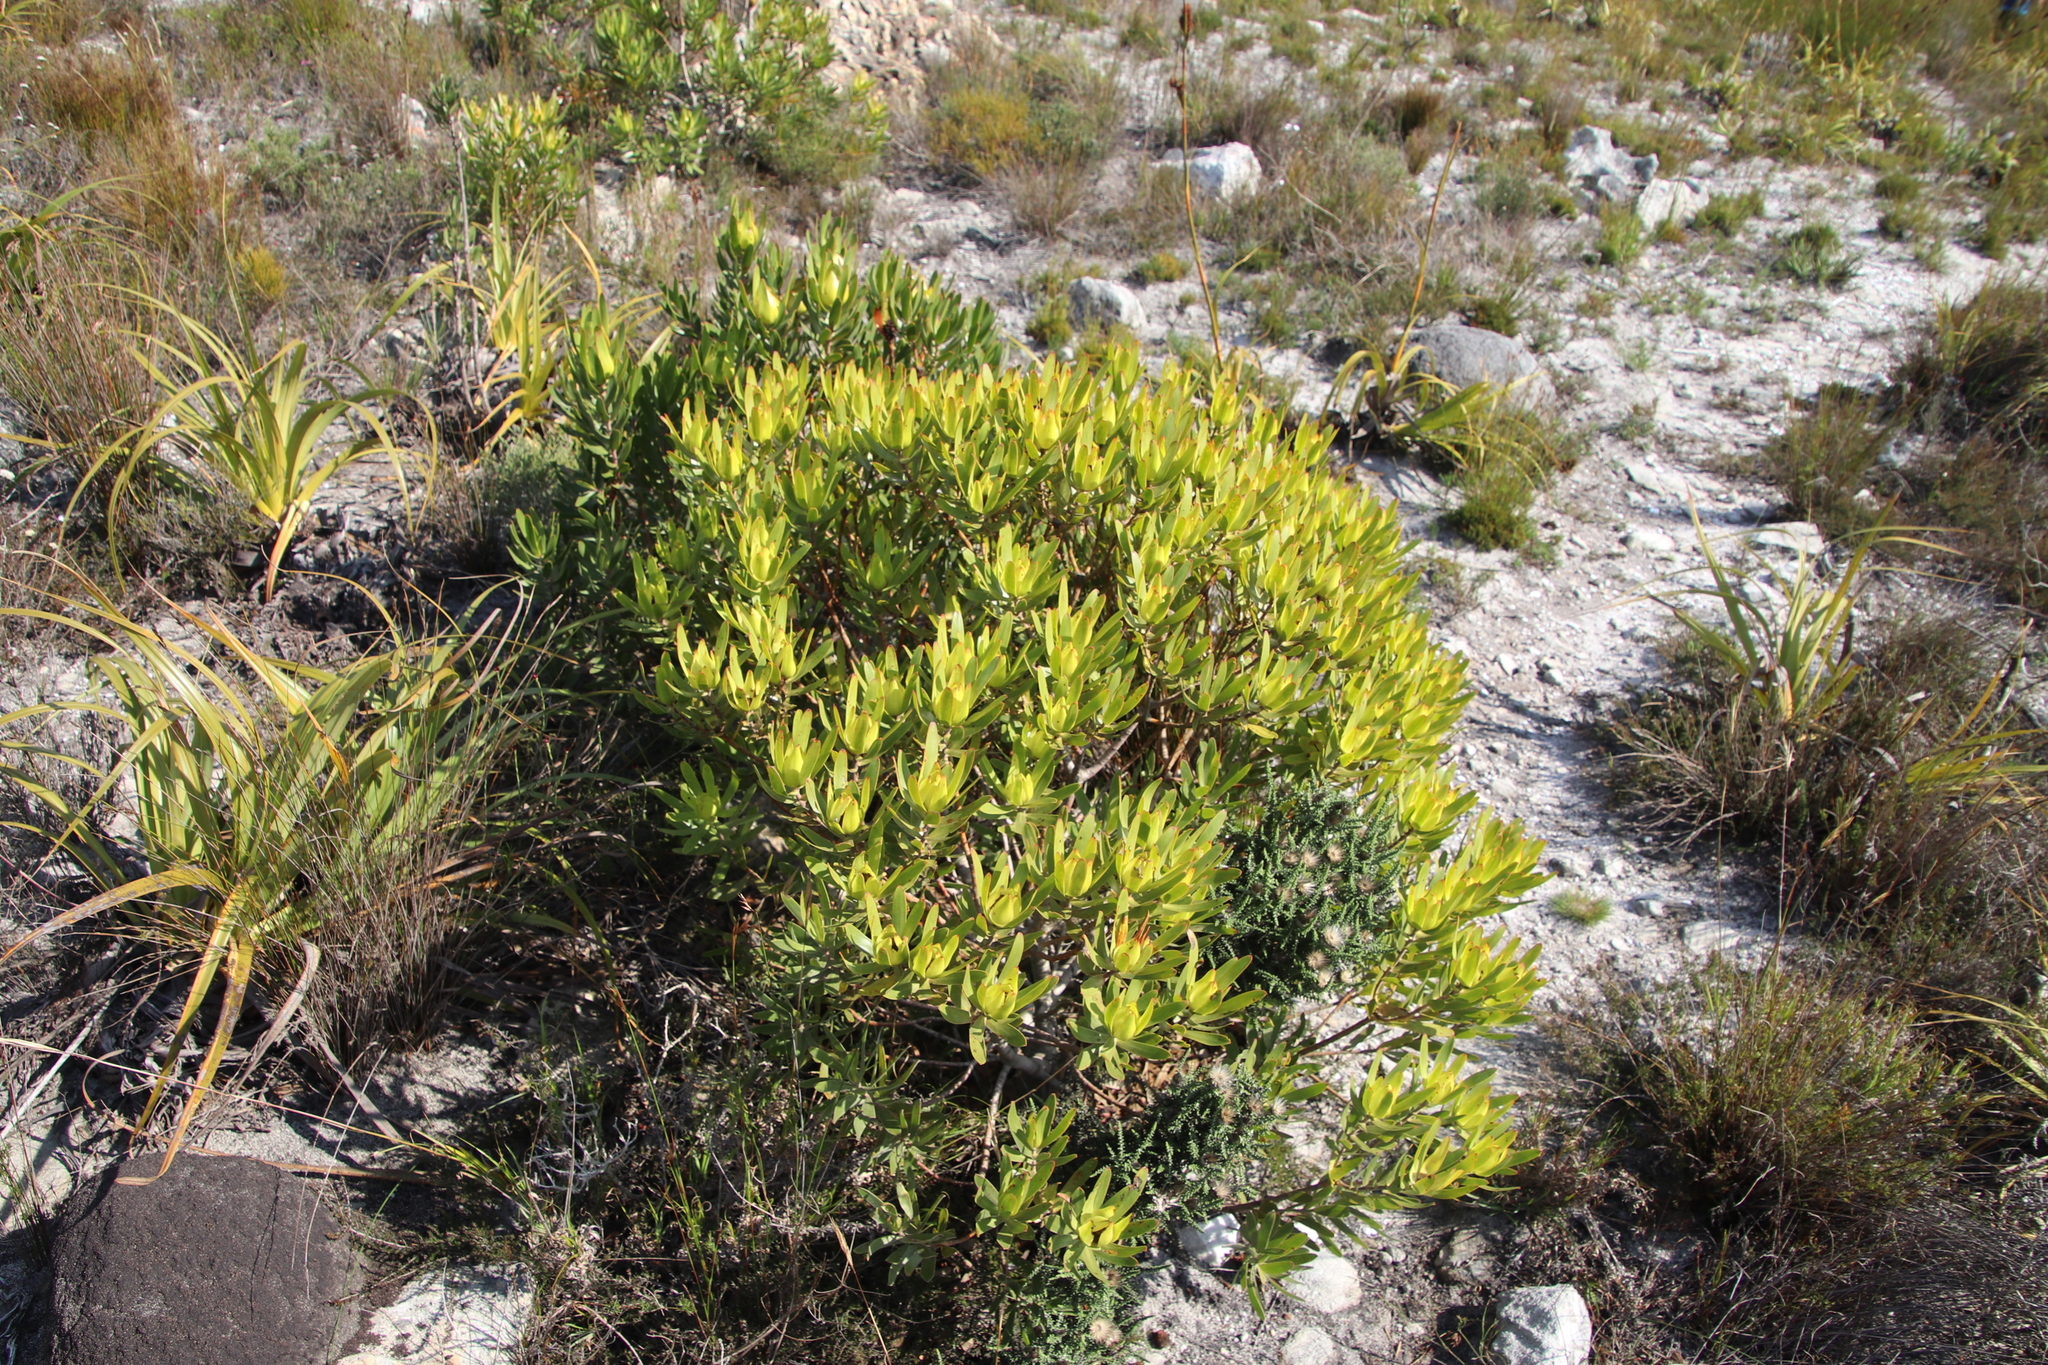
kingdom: Plantae
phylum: Tracheophyta
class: Magnoliopsida
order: Proteales
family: Proteaceae
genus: Leucadendron
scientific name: Leucadendron laureolum
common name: Golden sunshinebush
